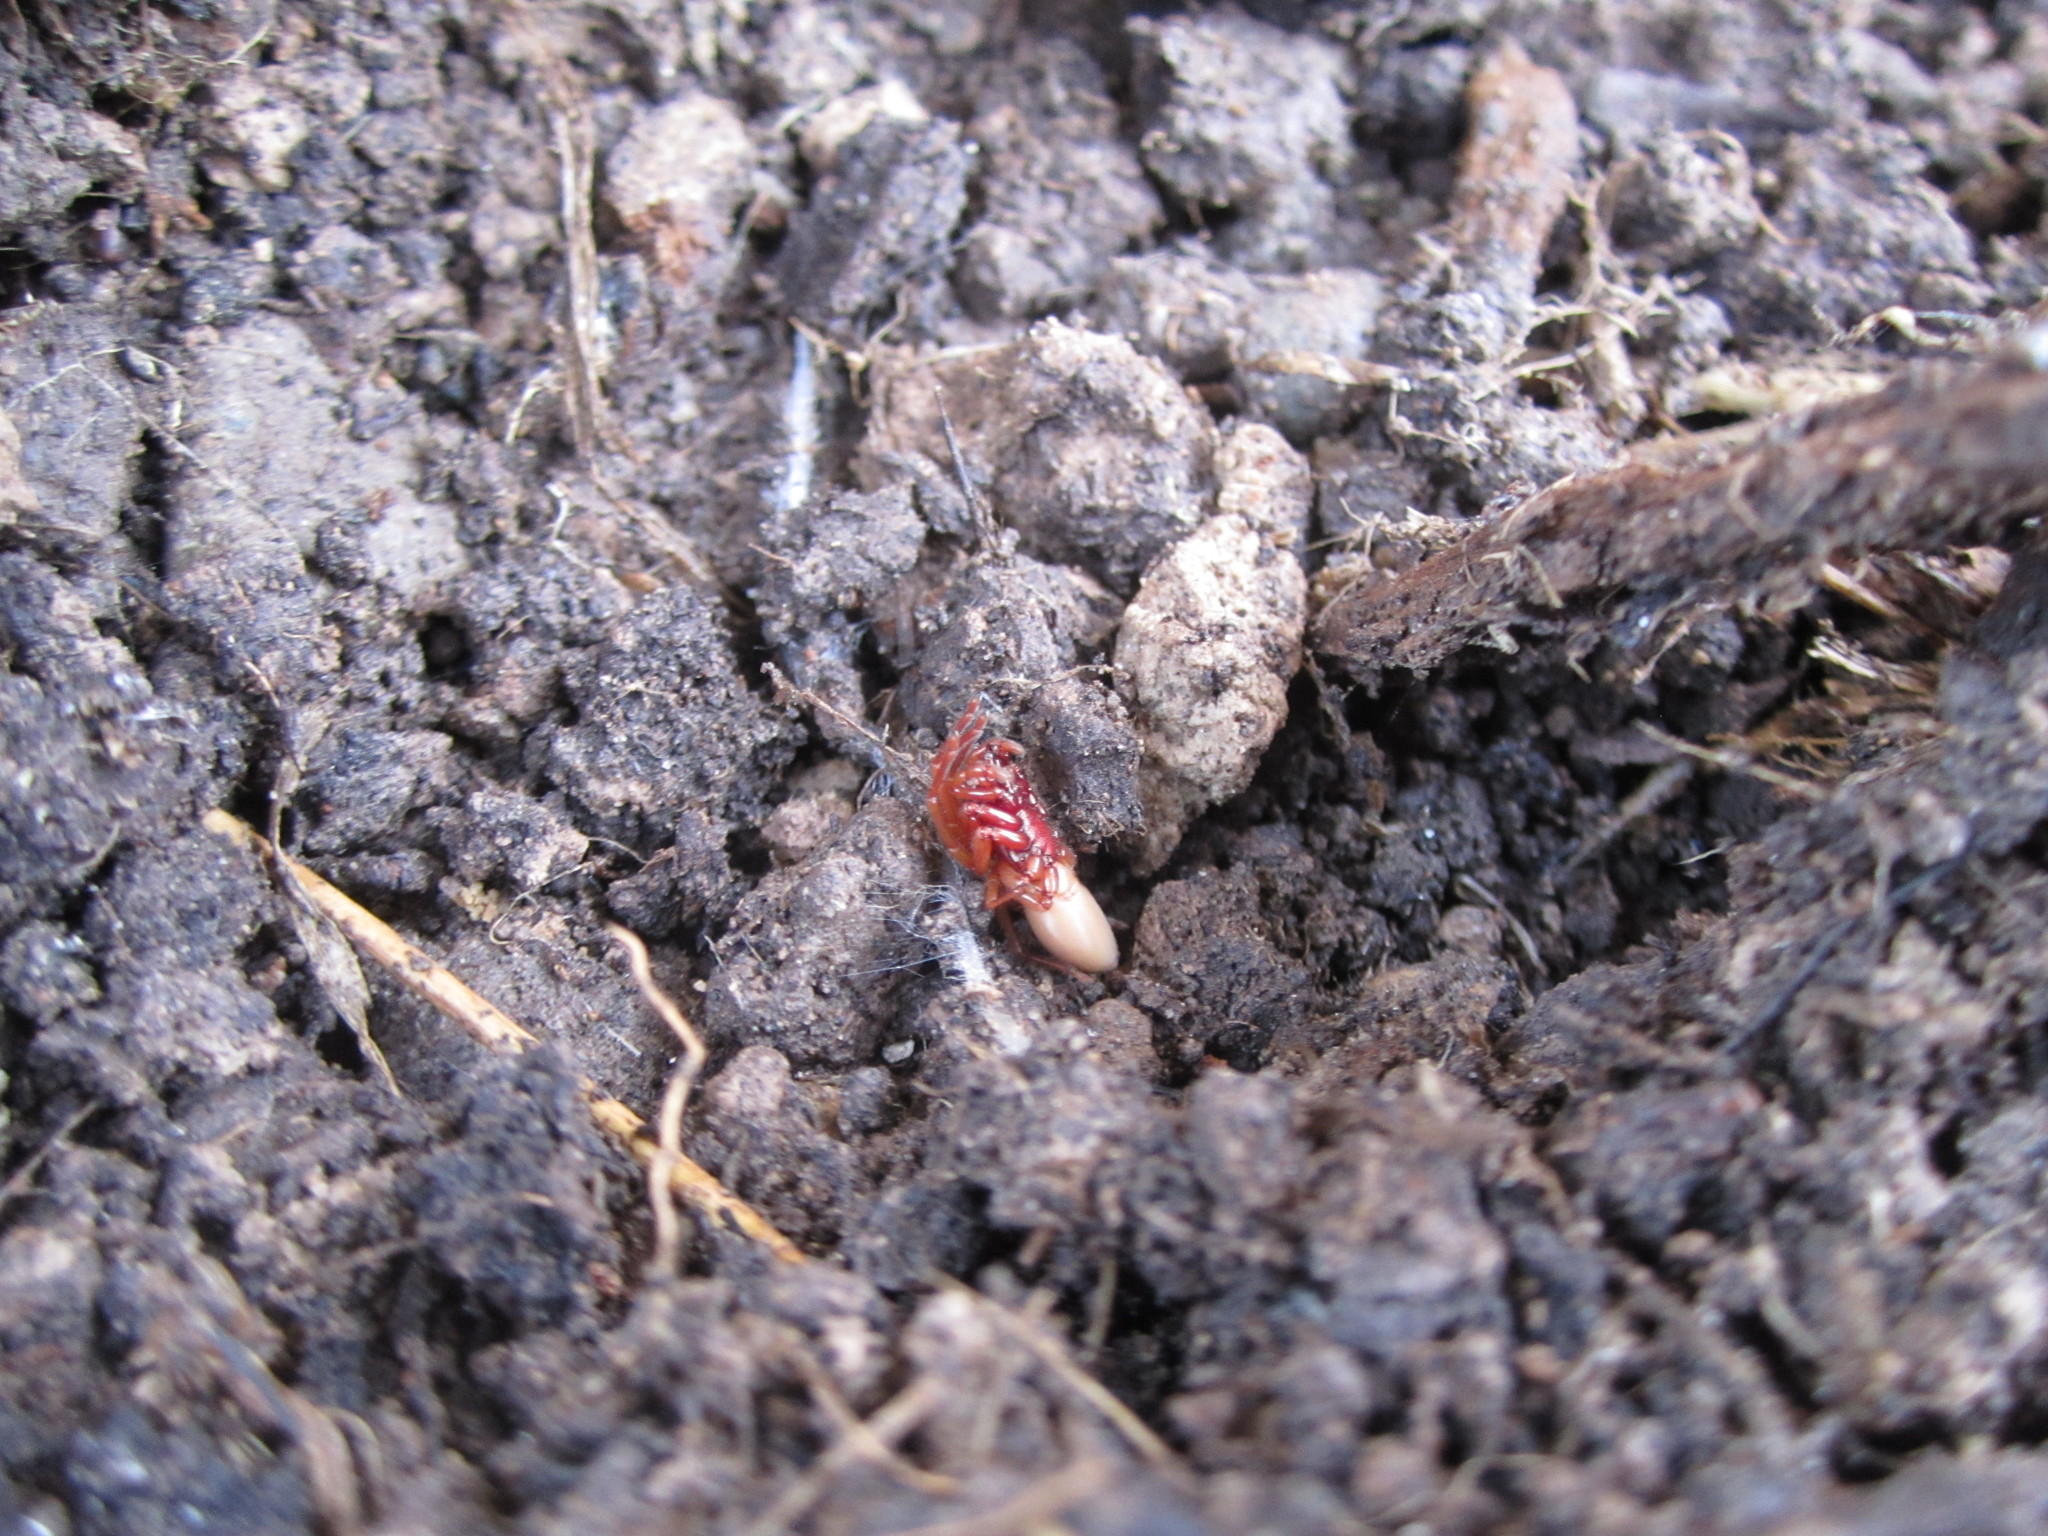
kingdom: Animalia
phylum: Arthropoda
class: Arachnida
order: Araneae
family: Dysderidae
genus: Dysdera
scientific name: Dysdera crocata
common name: Woodlouse spider
